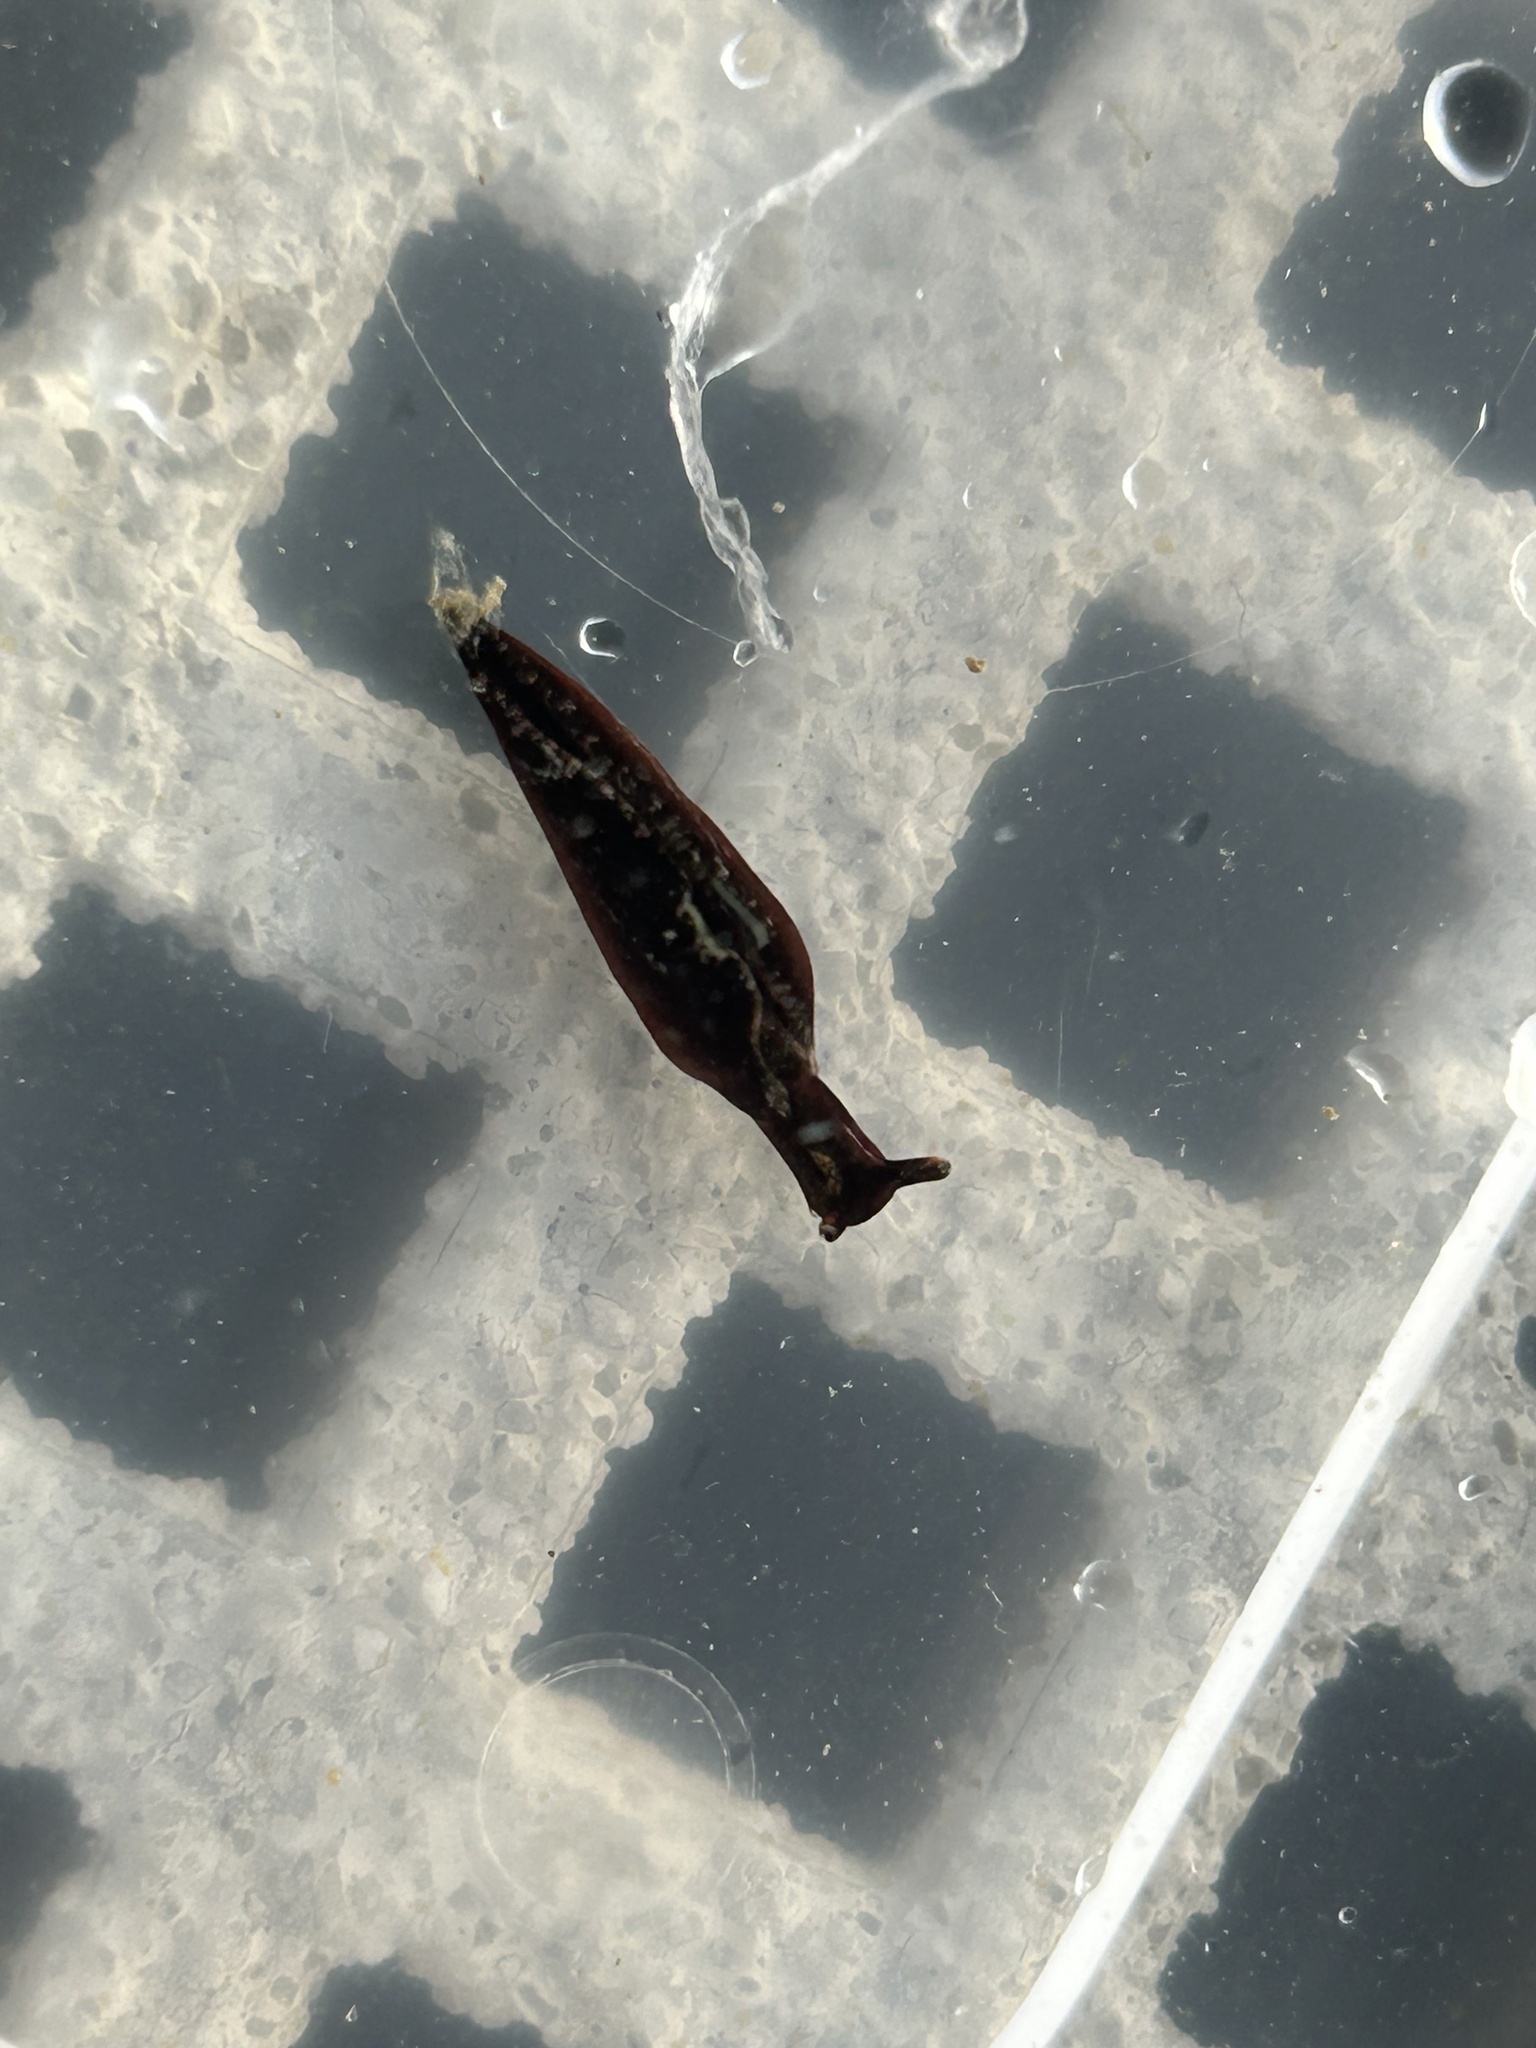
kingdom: Animalia
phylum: Mollusca
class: Gastropoda
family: Plakobranchidae
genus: Elysia
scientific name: Elysia viridis
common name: Green elysia
